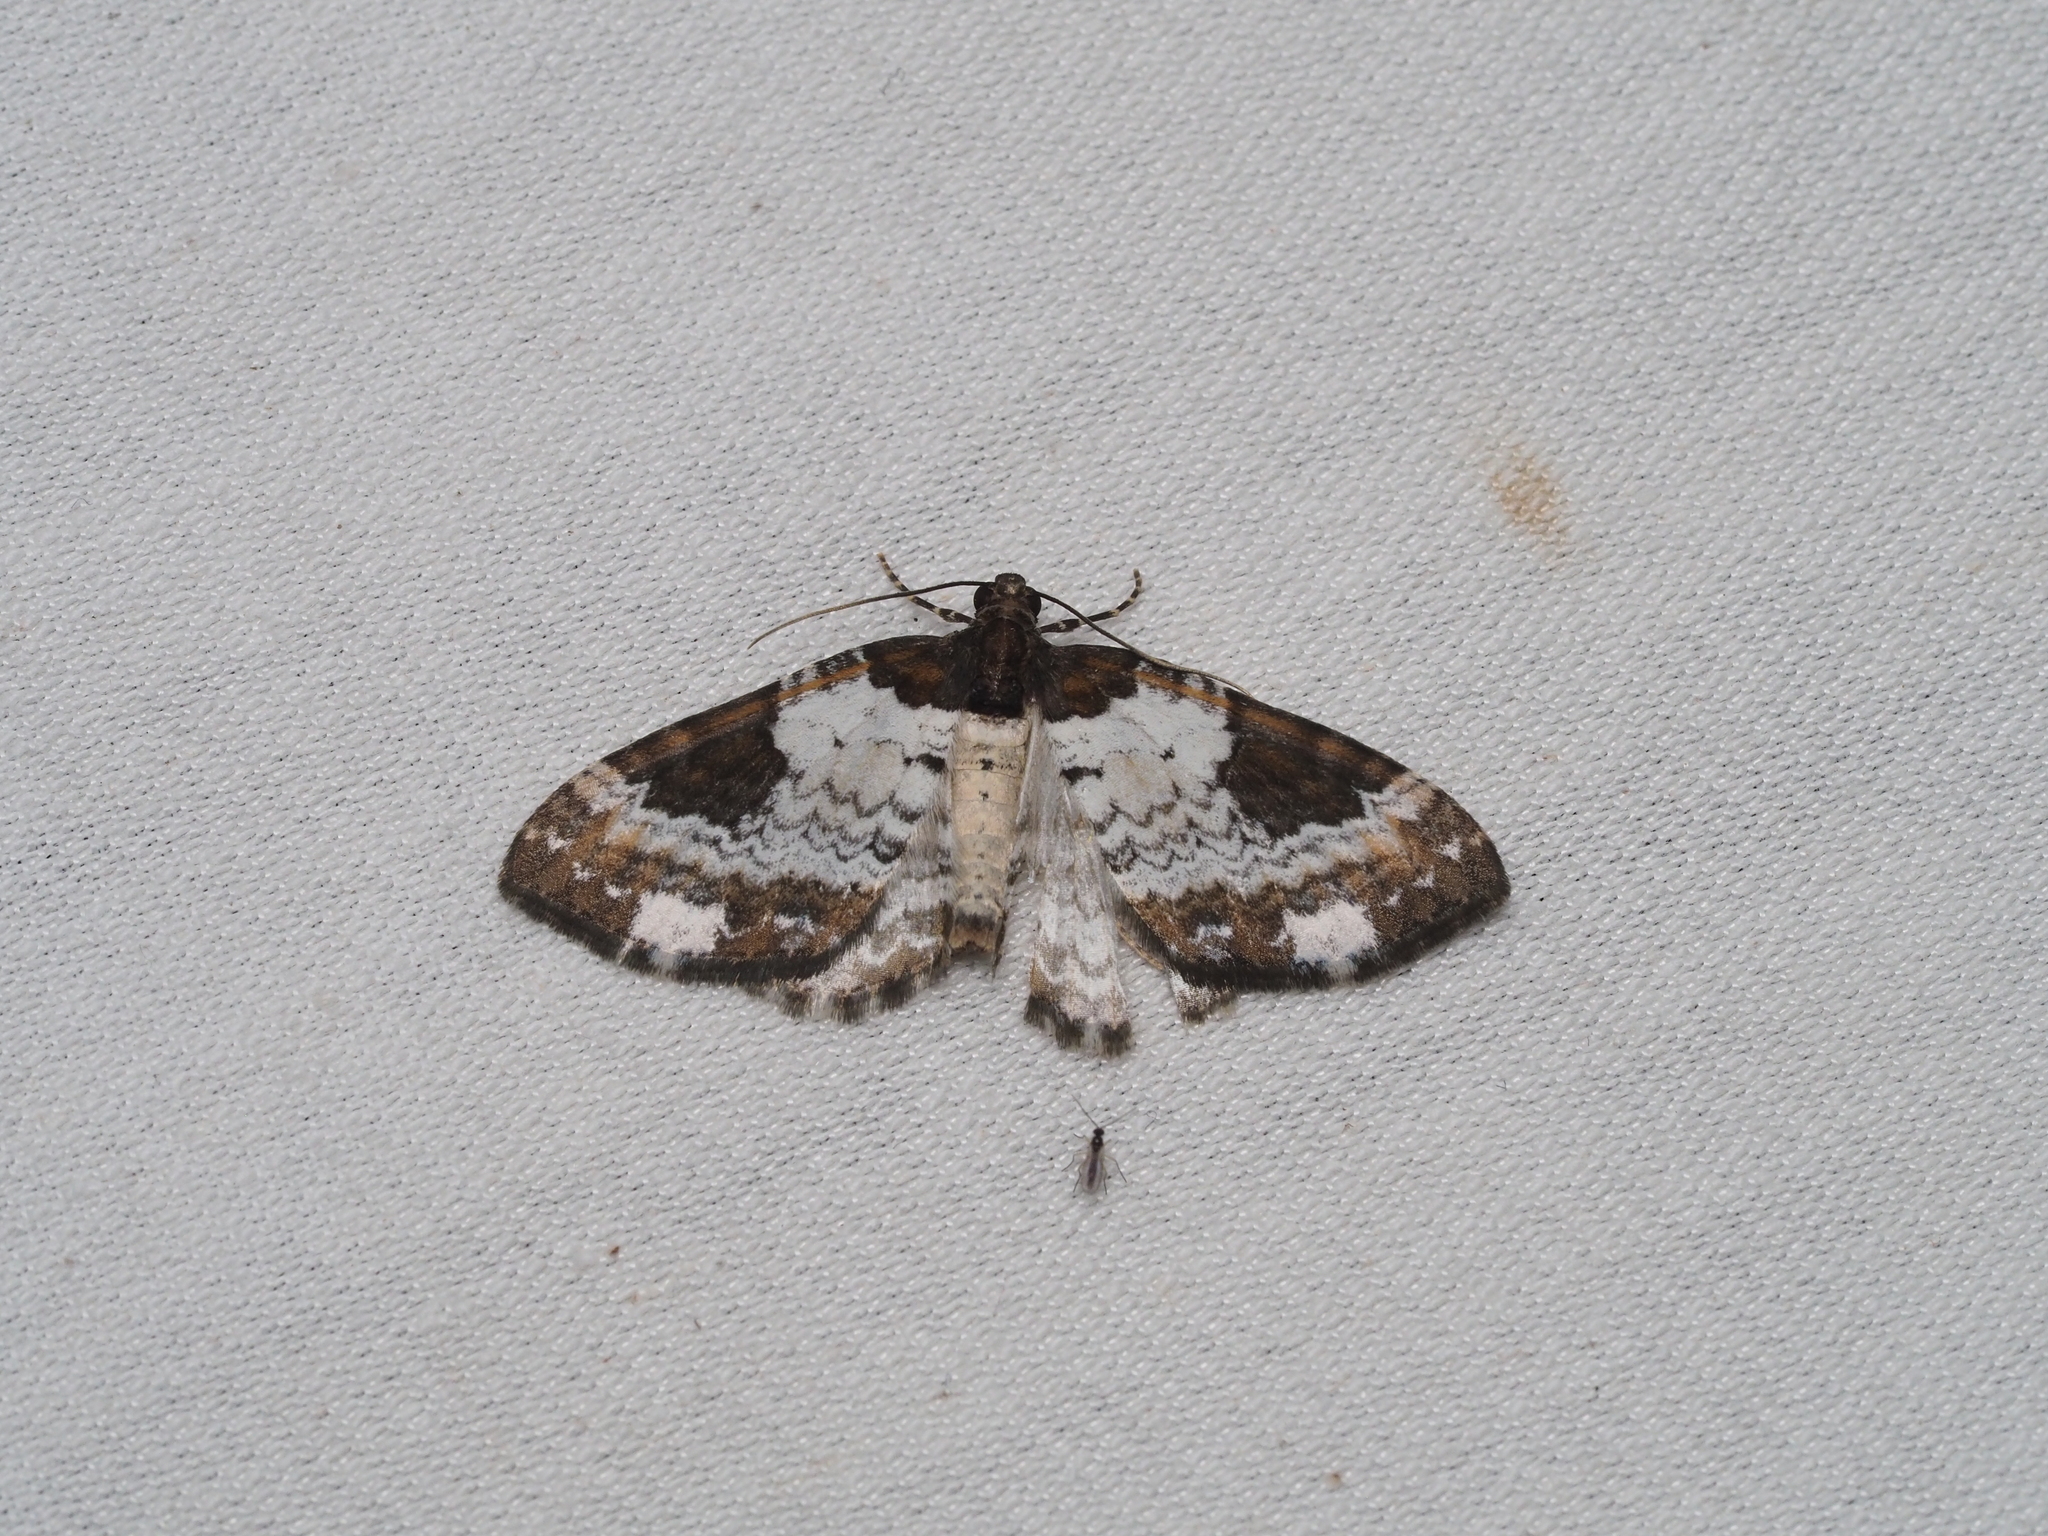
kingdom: Animalia
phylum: Arthropoda
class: Insecta
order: Lepidoptera
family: Geometridae
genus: Melanthia
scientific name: Melanthia procellata
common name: Pretty chalk carpet
